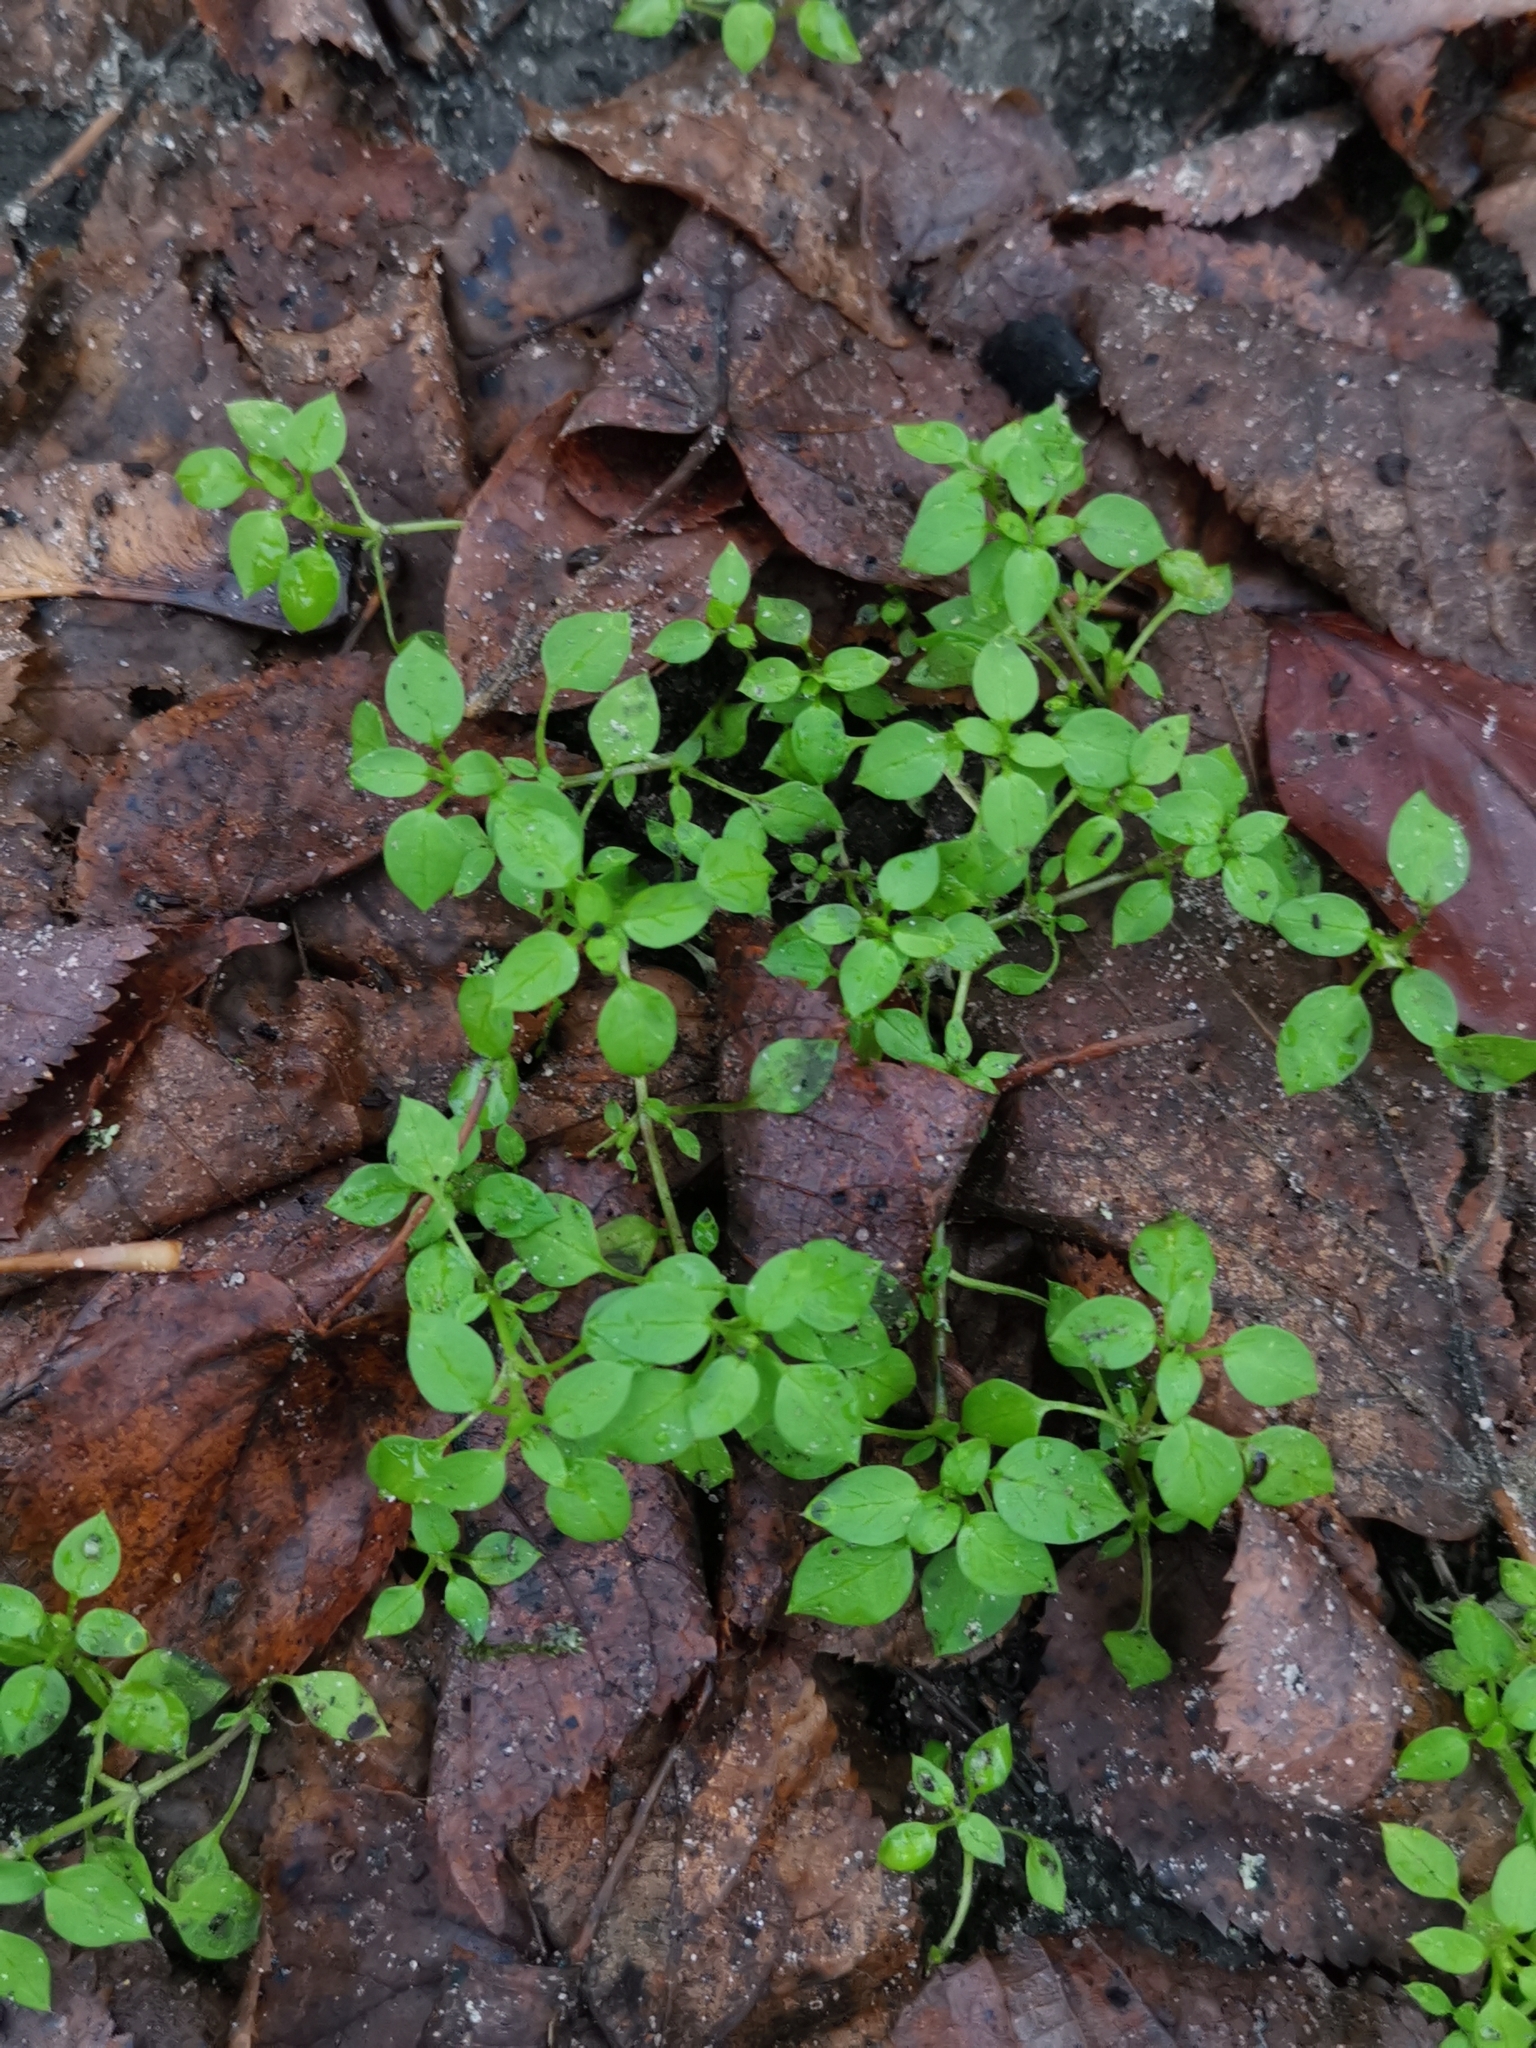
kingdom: Plantae
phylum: Tracheophyta
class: Magnoliopsida
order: Caryophyllales
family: Caryophyllaceae
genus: Stellaria
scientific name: Stellaria media
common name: Common chickweed
